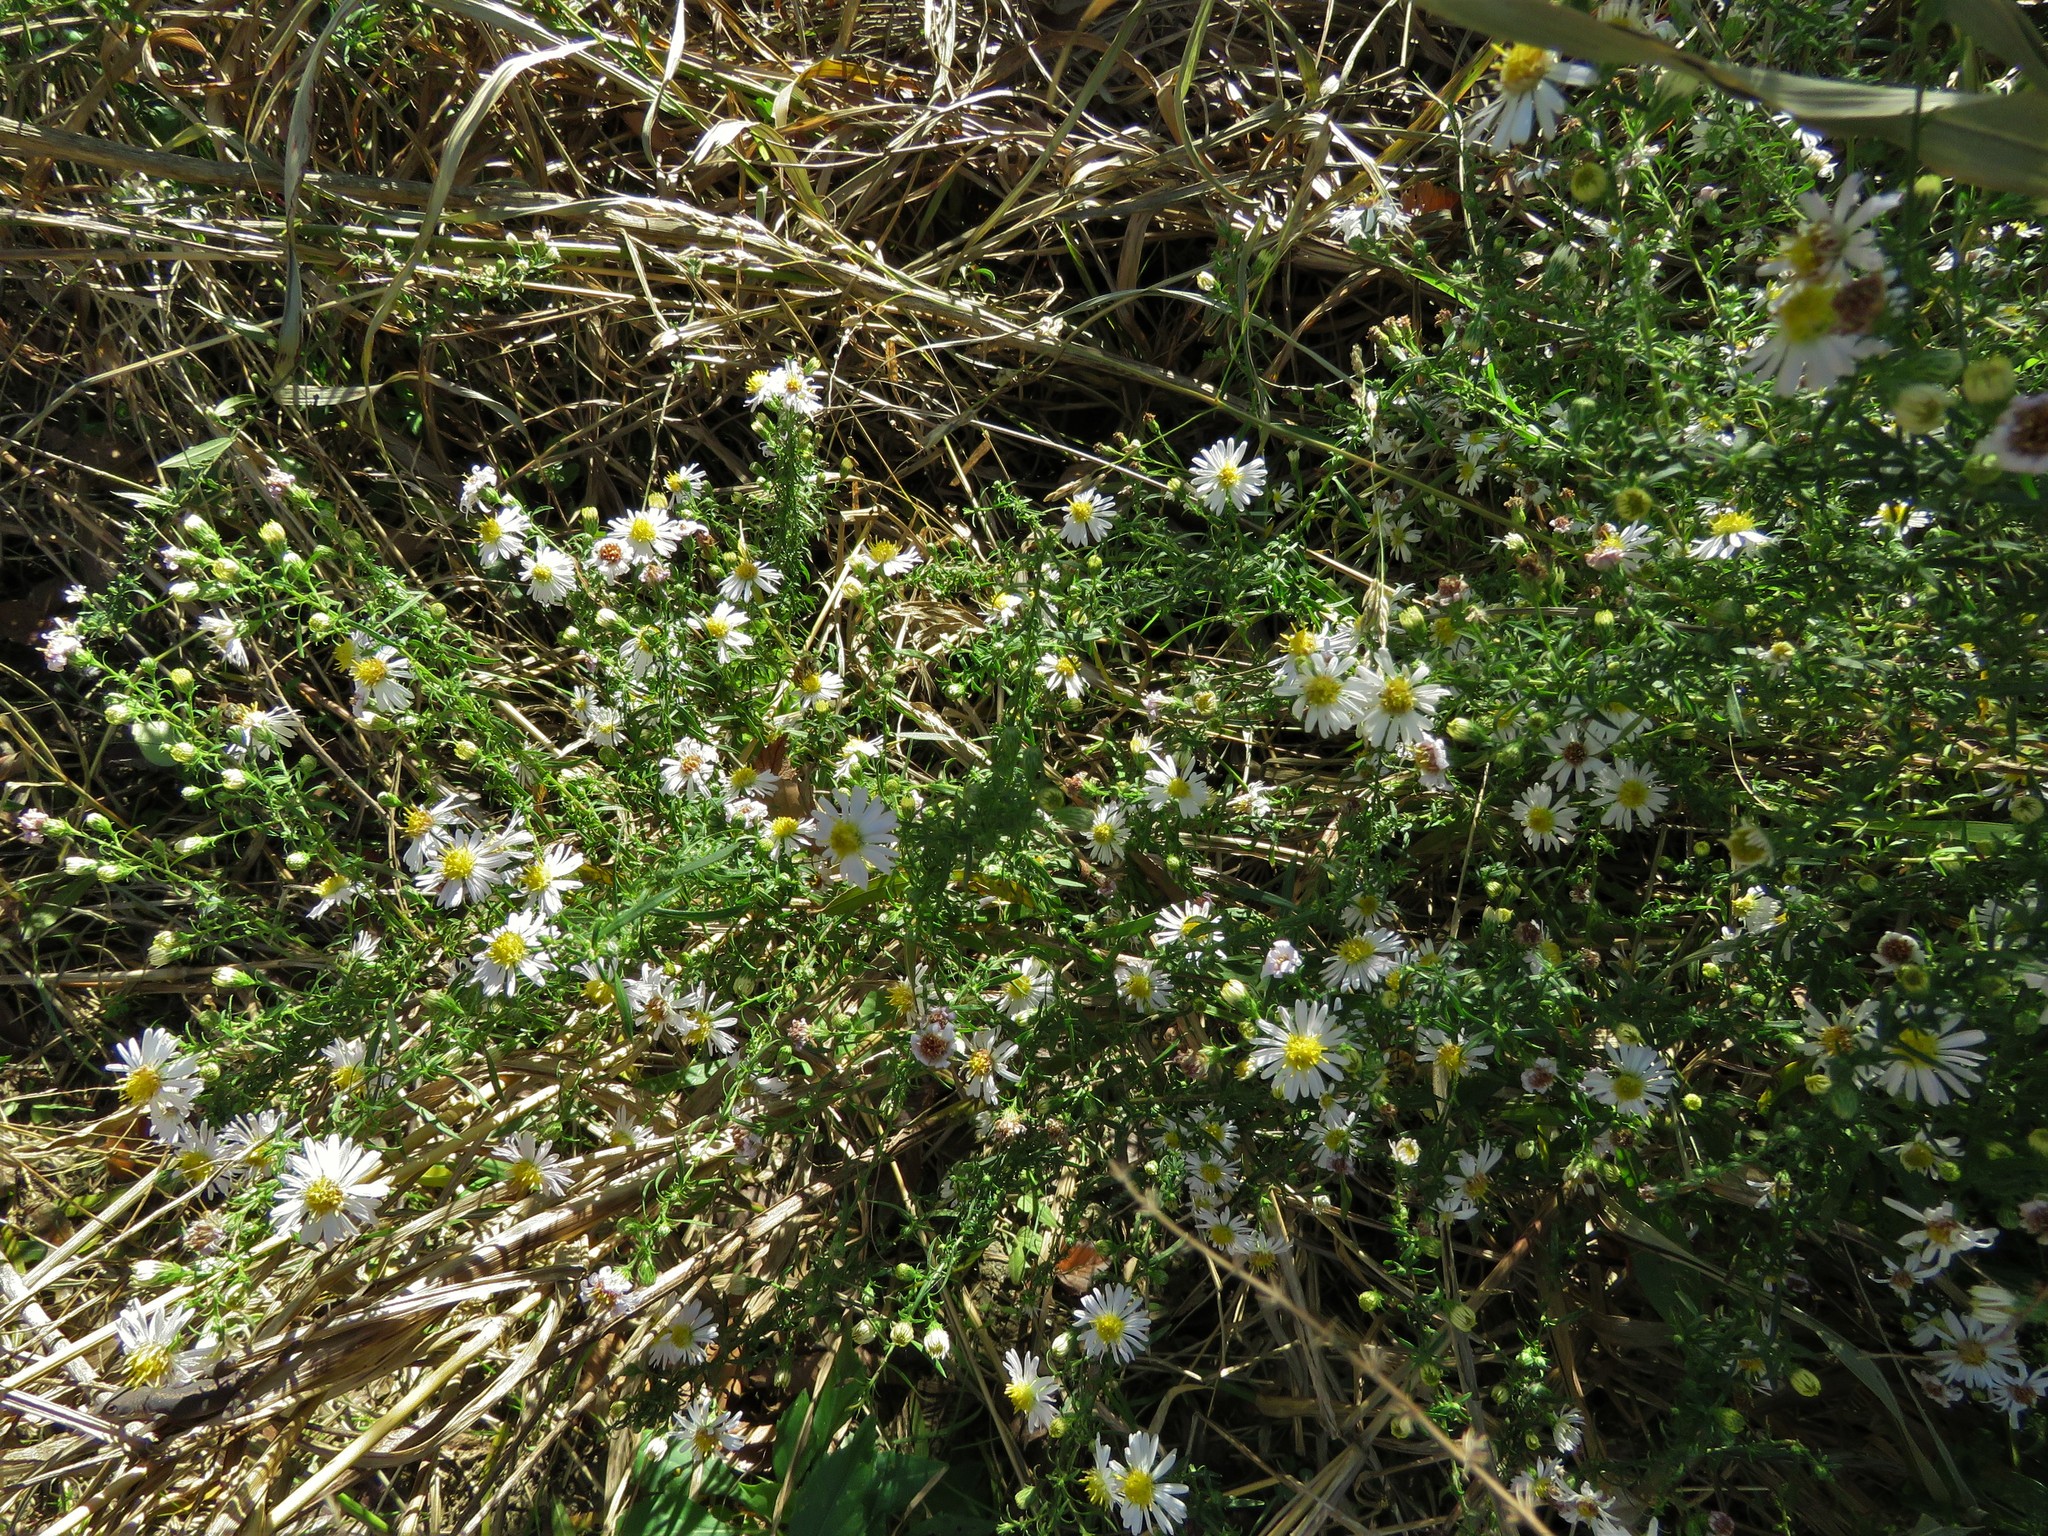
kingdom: Plantae
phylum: Tracheophyta
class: Magnoliopsida
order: Asterales
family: Asteraceae
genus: Symphyotrichum
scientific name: Symphyotrichum ericoides
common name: Heath aster
